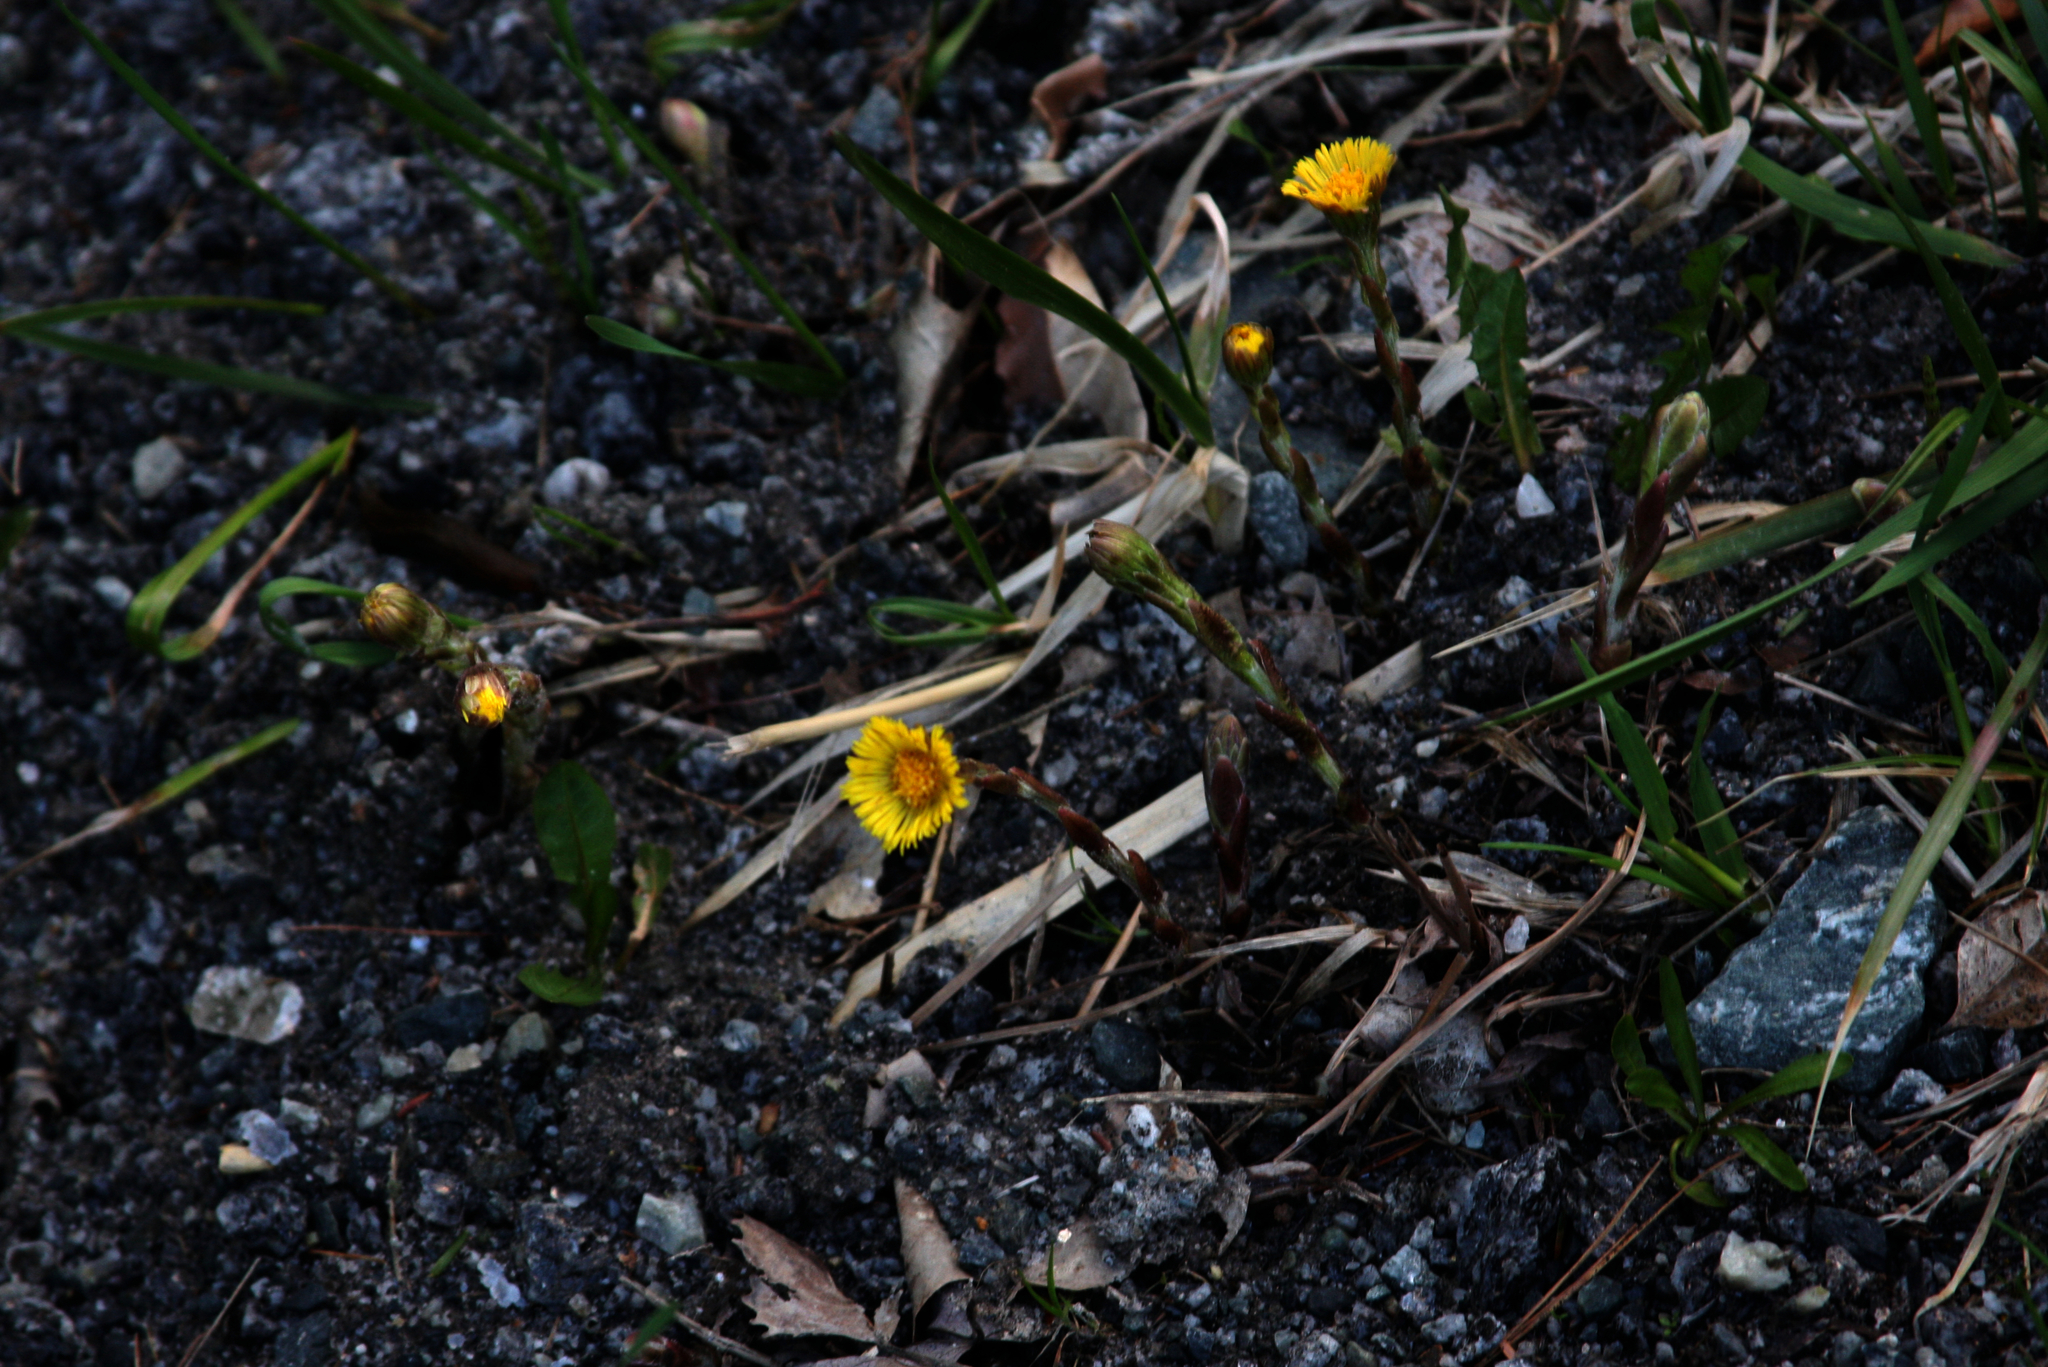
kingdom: Plantae
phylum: Tracheophyta
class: Magnoliopsida
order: Asterales
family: Asteraceae
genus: Tussilago
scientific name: Tussilago farfara
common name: Coltsfoot
